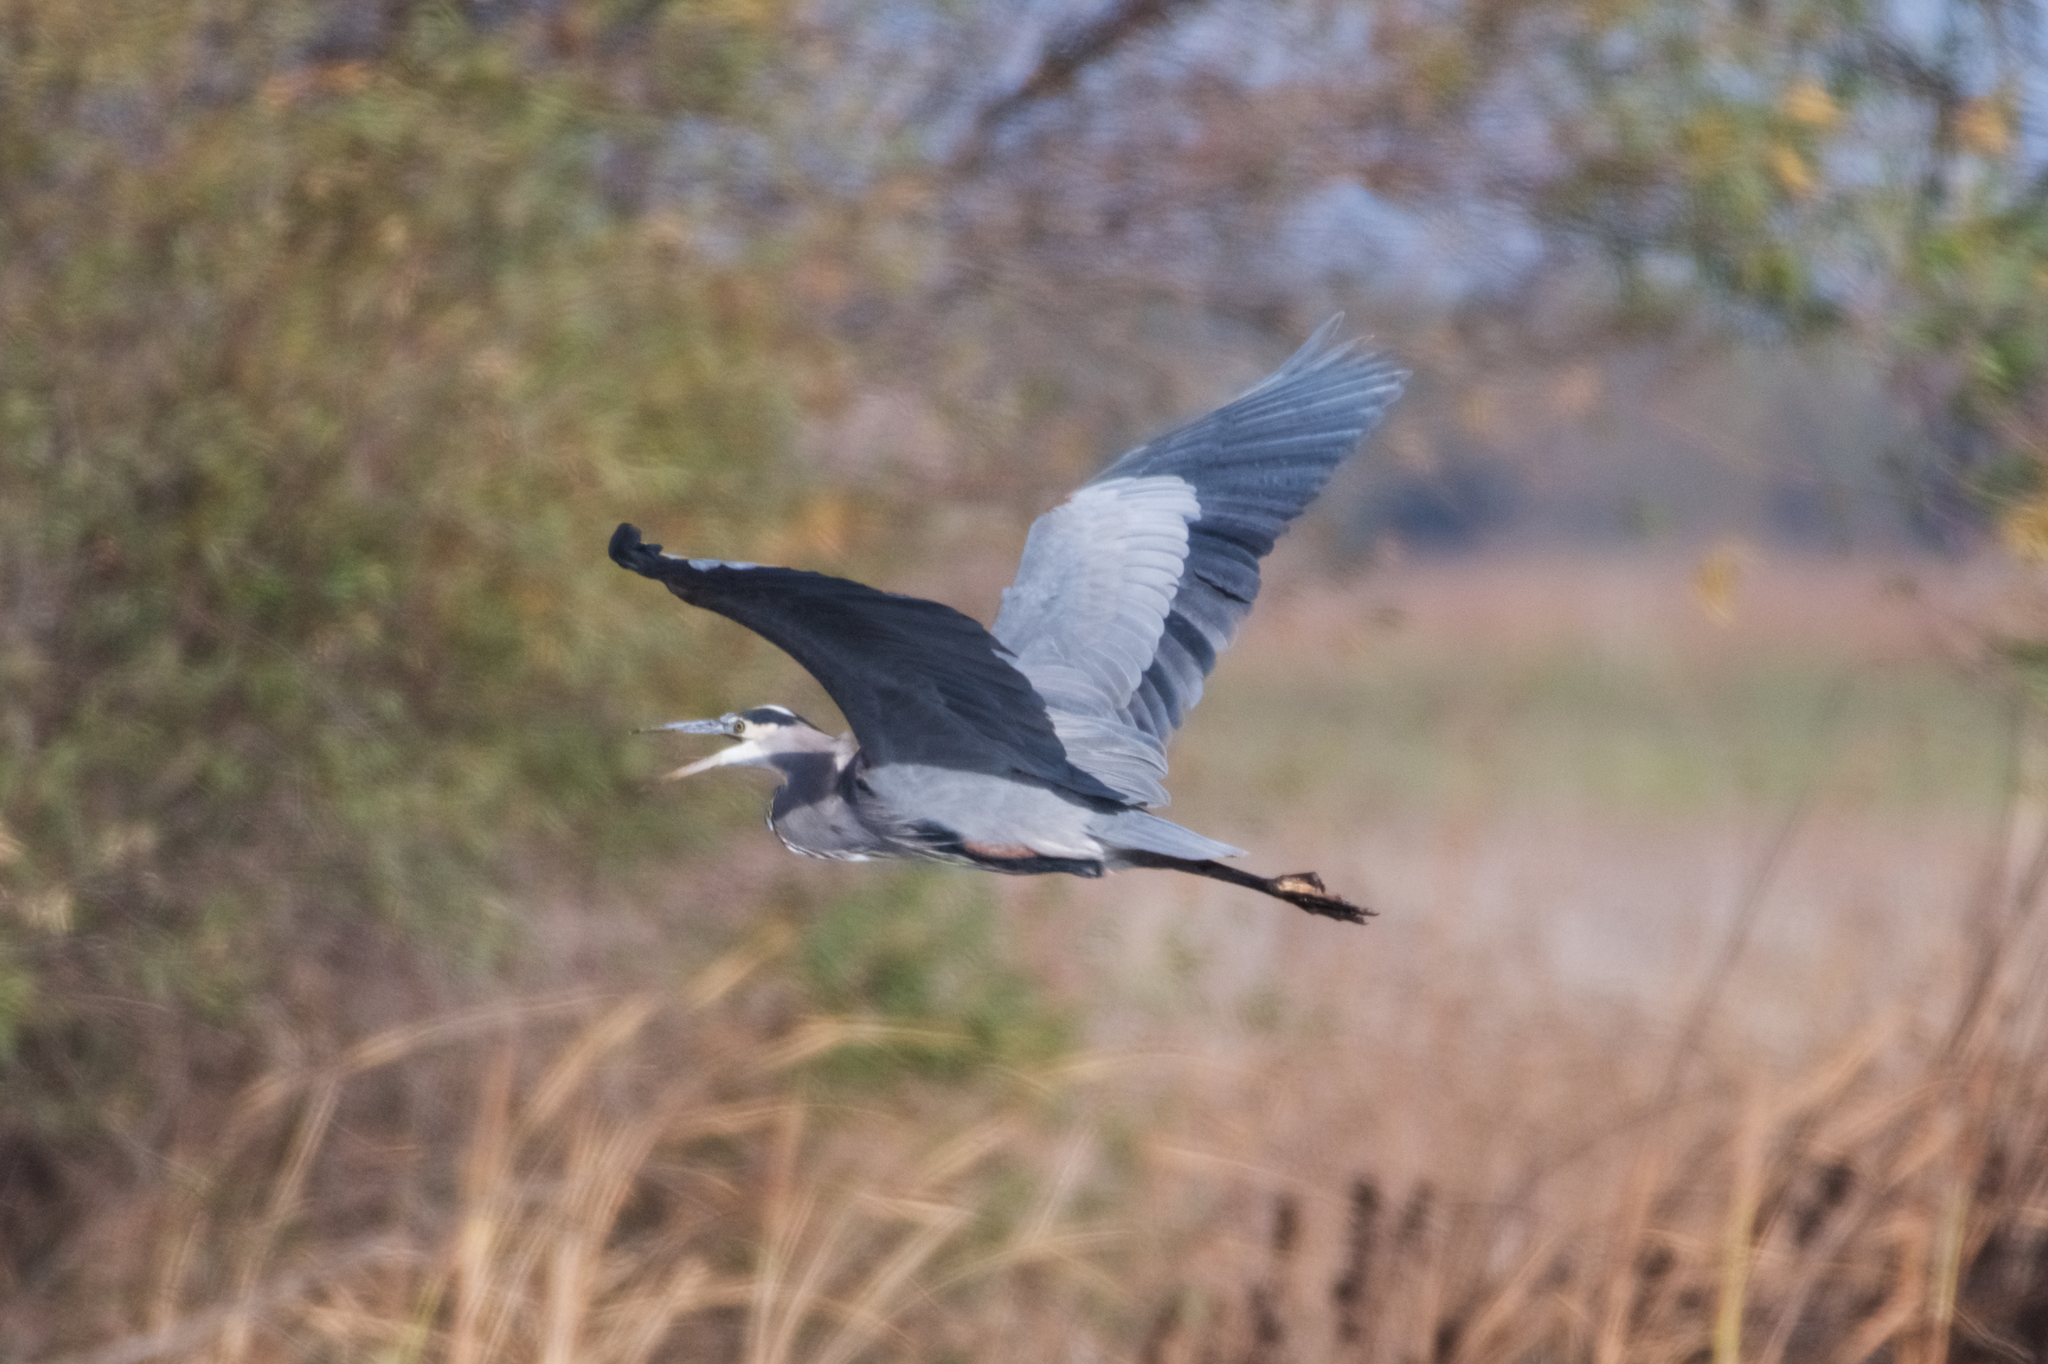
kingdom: Animalia
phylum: Chordata
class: Aves
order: Pelecaniformes
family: Ardeidae
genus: Ardea
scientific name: Ardea herodias
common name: Great blue heron
